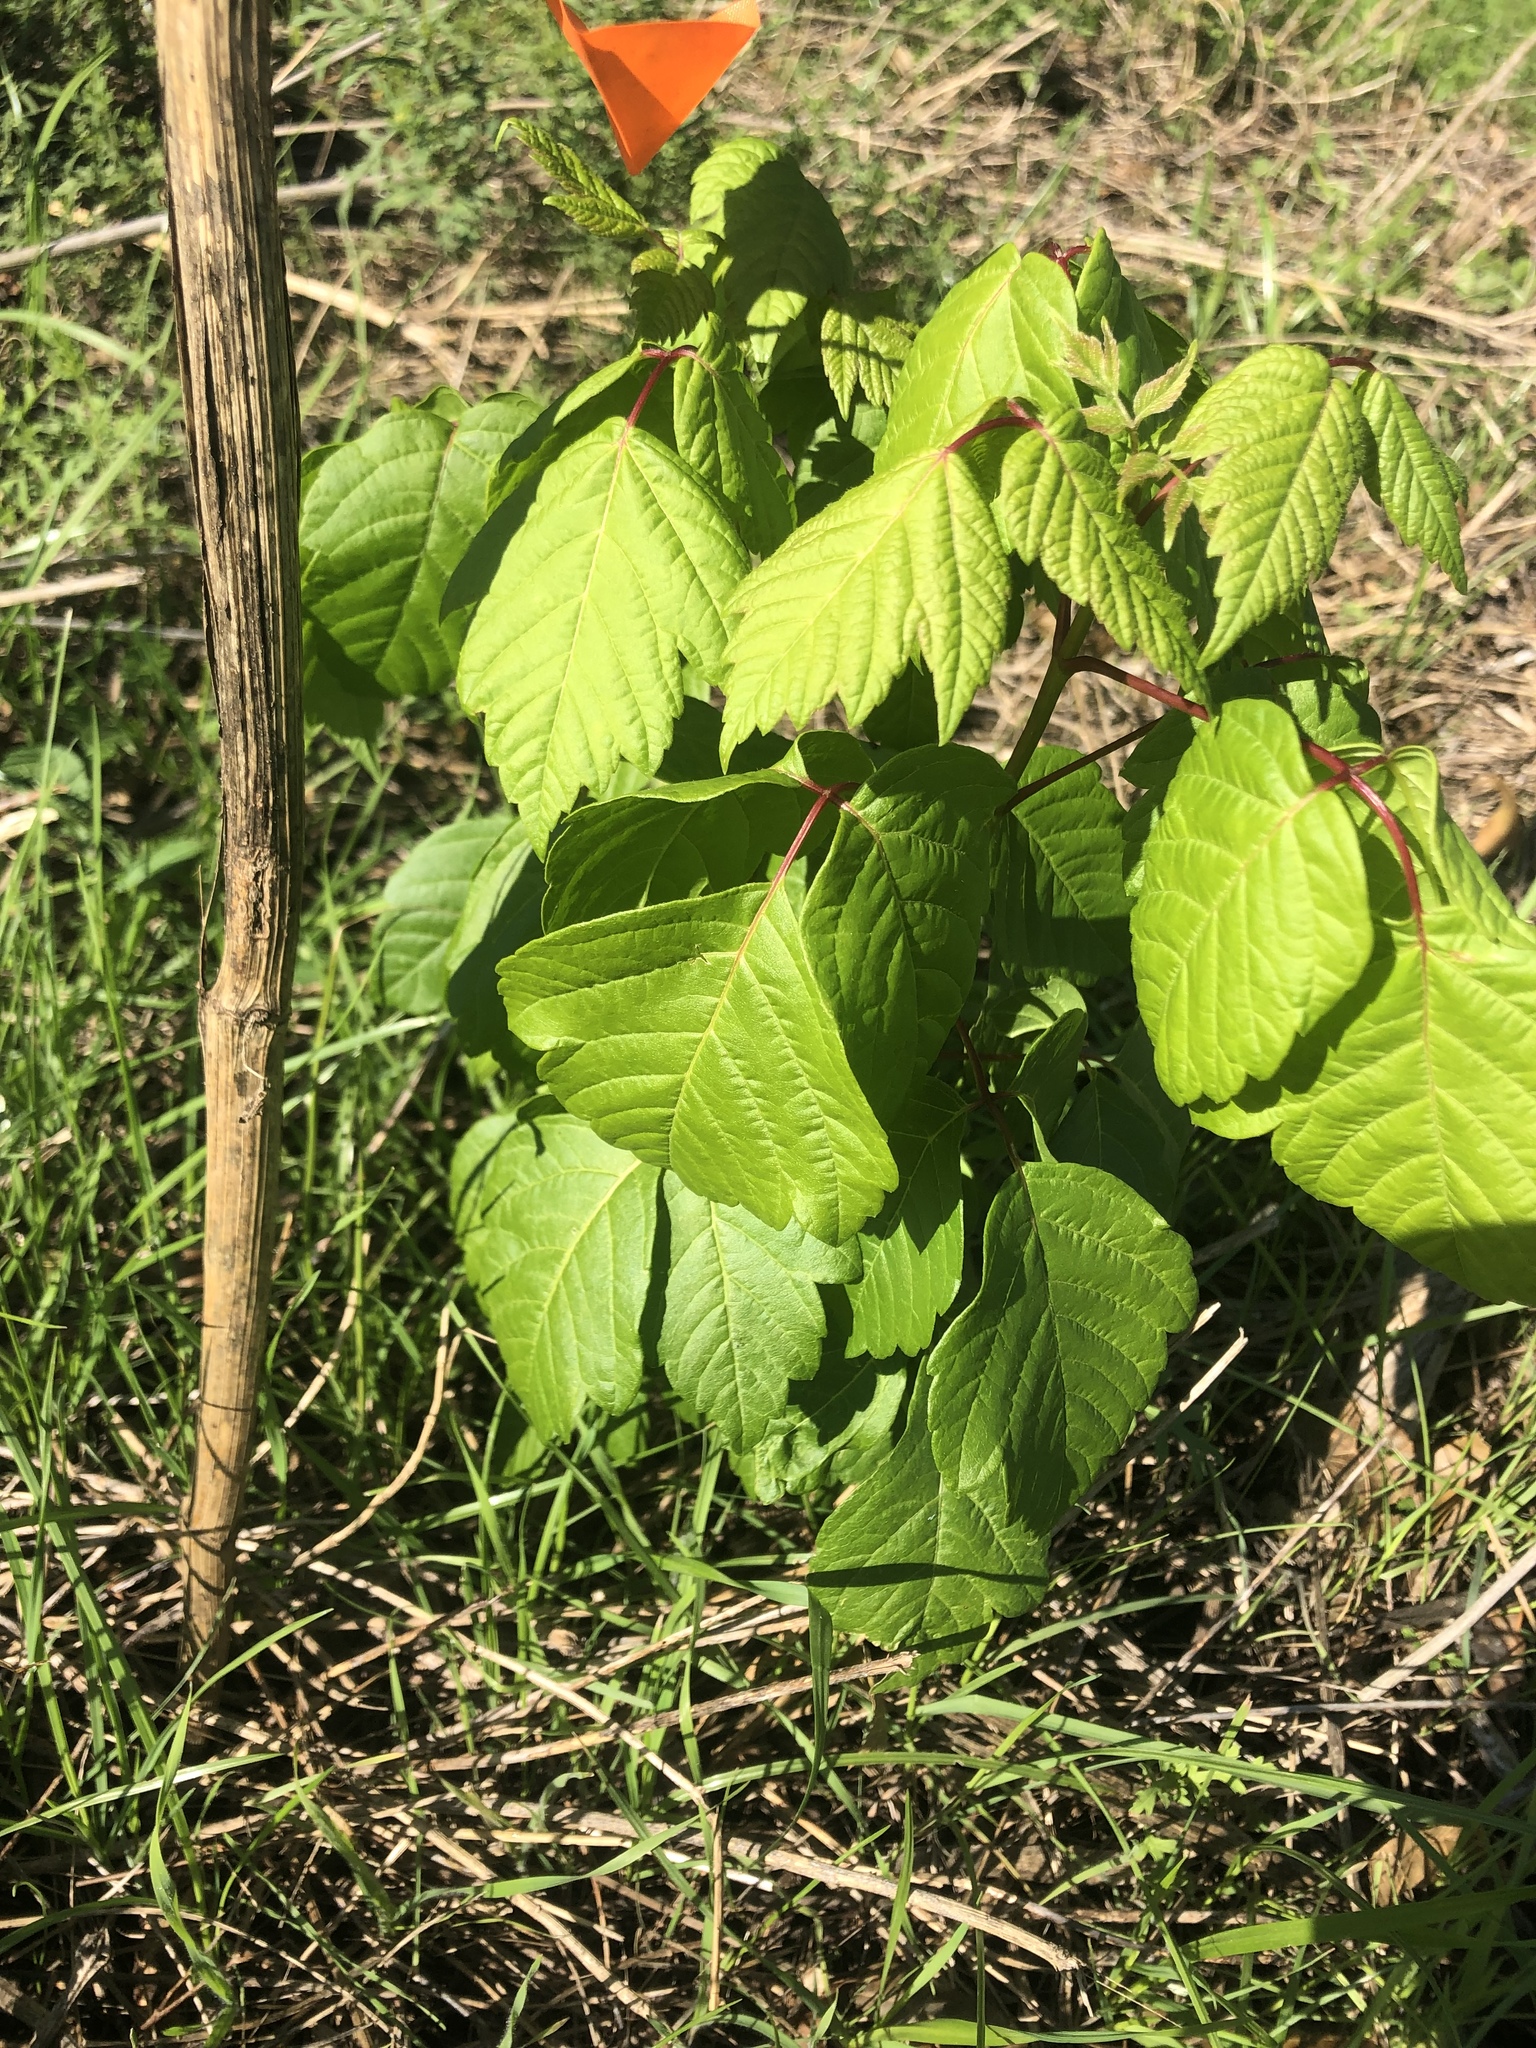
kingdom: Plantae
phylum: Tracheophyta
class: Magnoliopsida
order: Sapindales
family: Sapindaceae
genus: Acer
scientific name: Acer negundo
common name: Ashleaf maple
